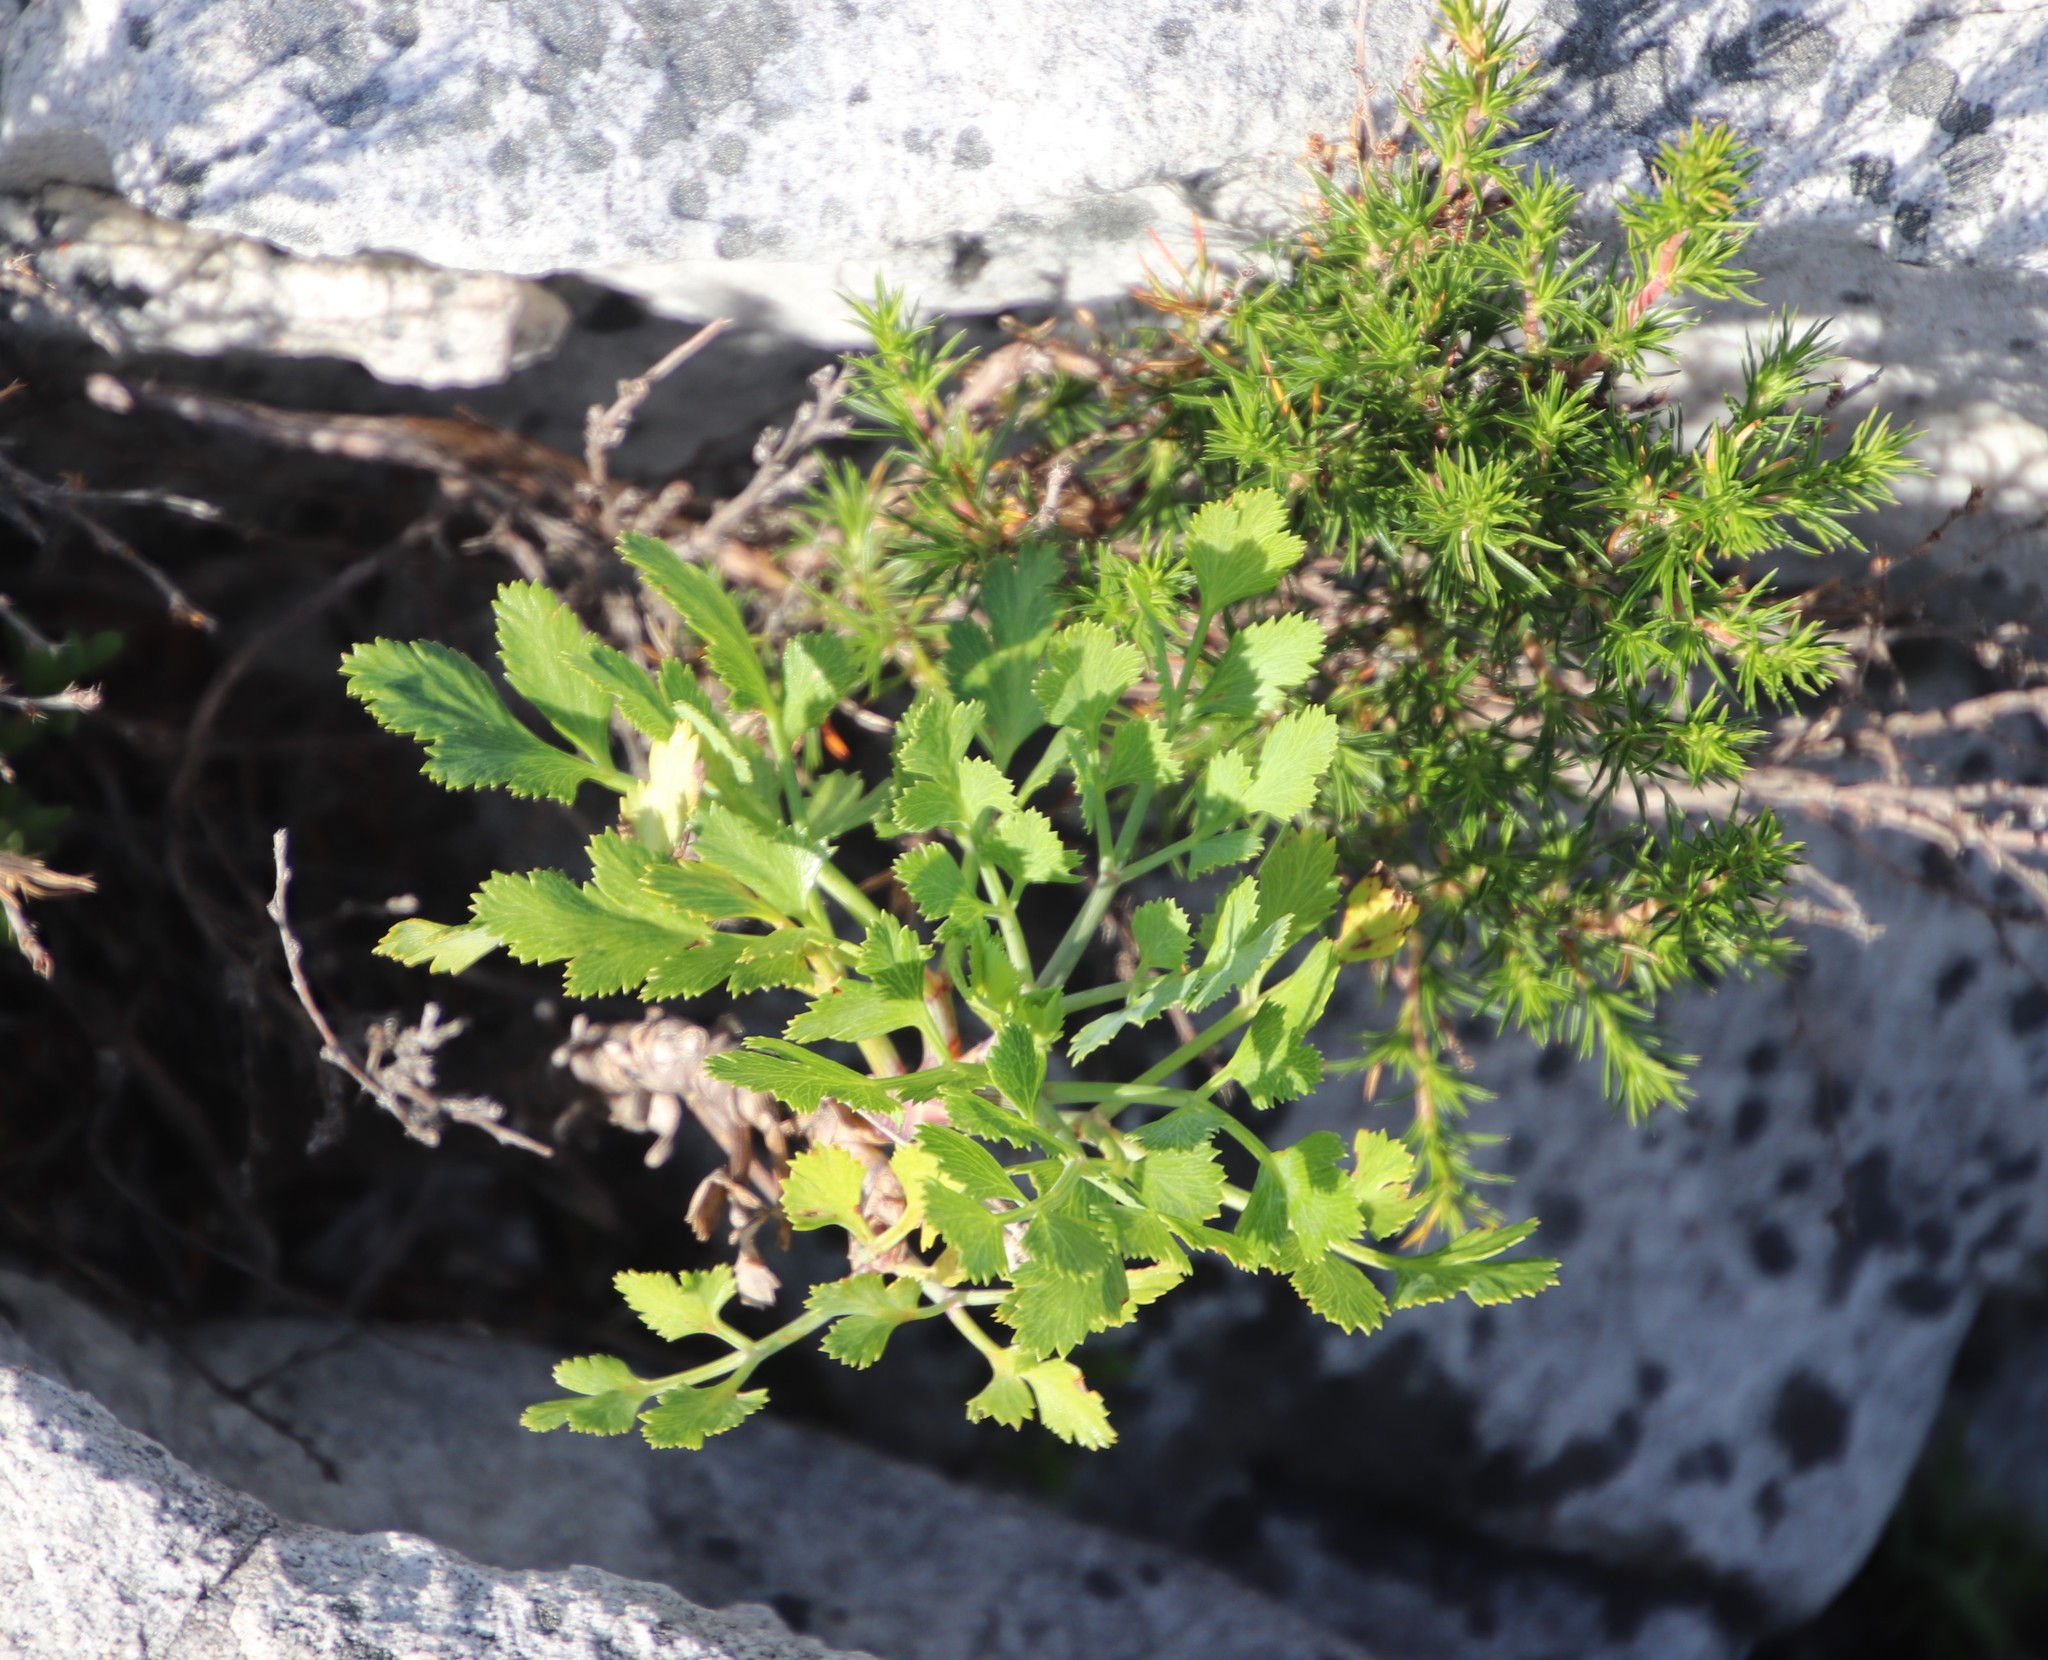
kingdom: Plantae
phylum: Tracheophyta
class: Magnoliopsida
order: Apiales
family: Apiaceae
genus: Notobubon
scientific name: Notobubon galbanum
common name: Blisterbush
